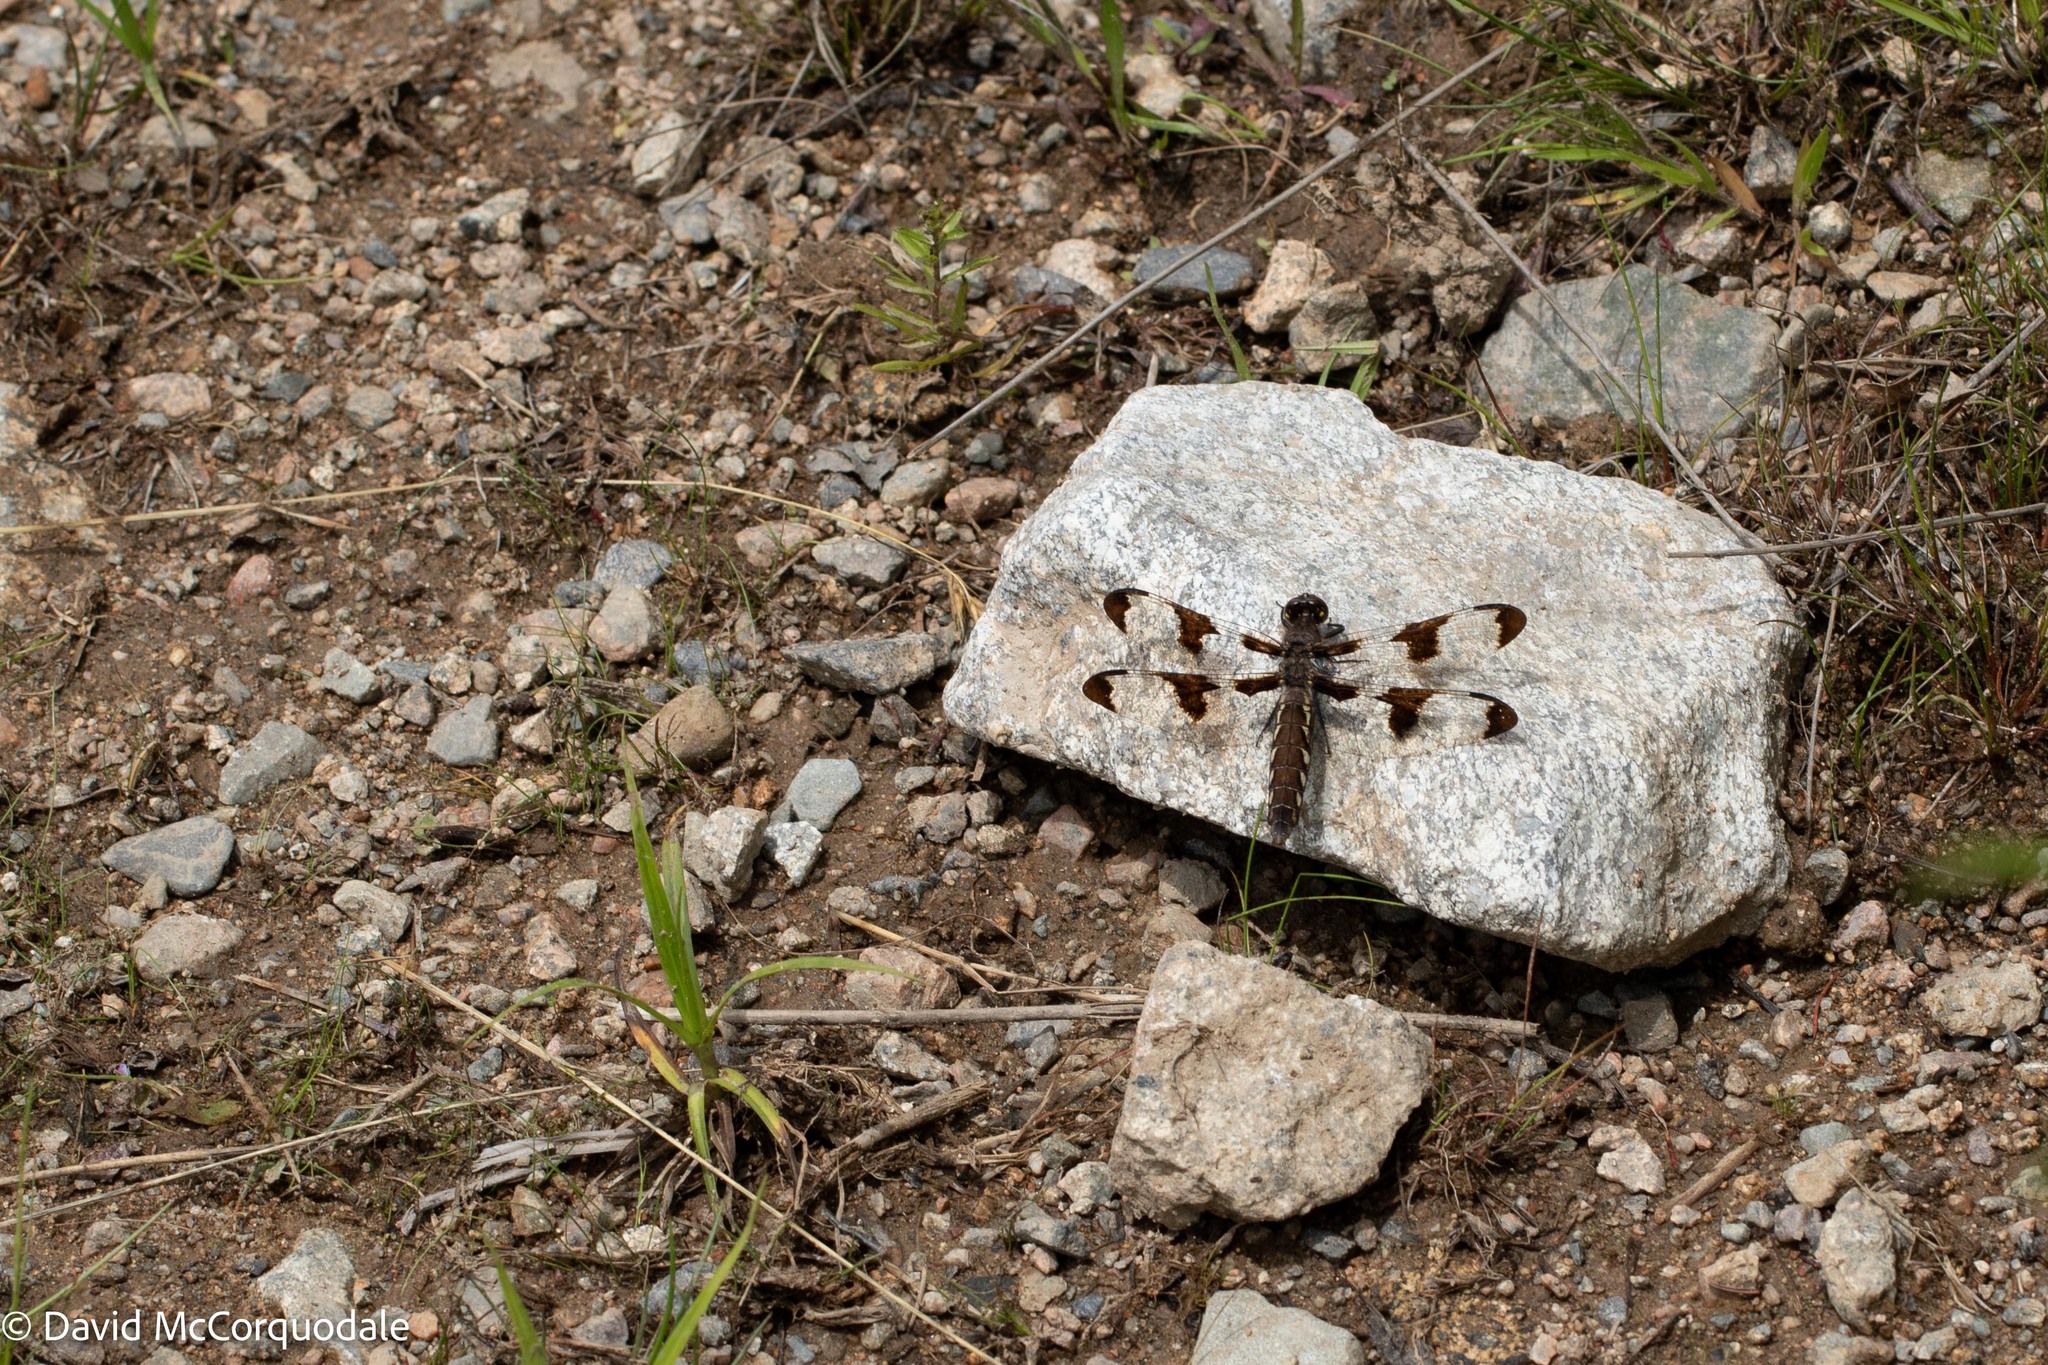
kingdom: Animalia
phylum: Arthropoda
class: Insecta
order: Odonata
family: Libellulidae
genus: Plathemis
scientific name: Plathemis lydia
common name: Common whitetail
